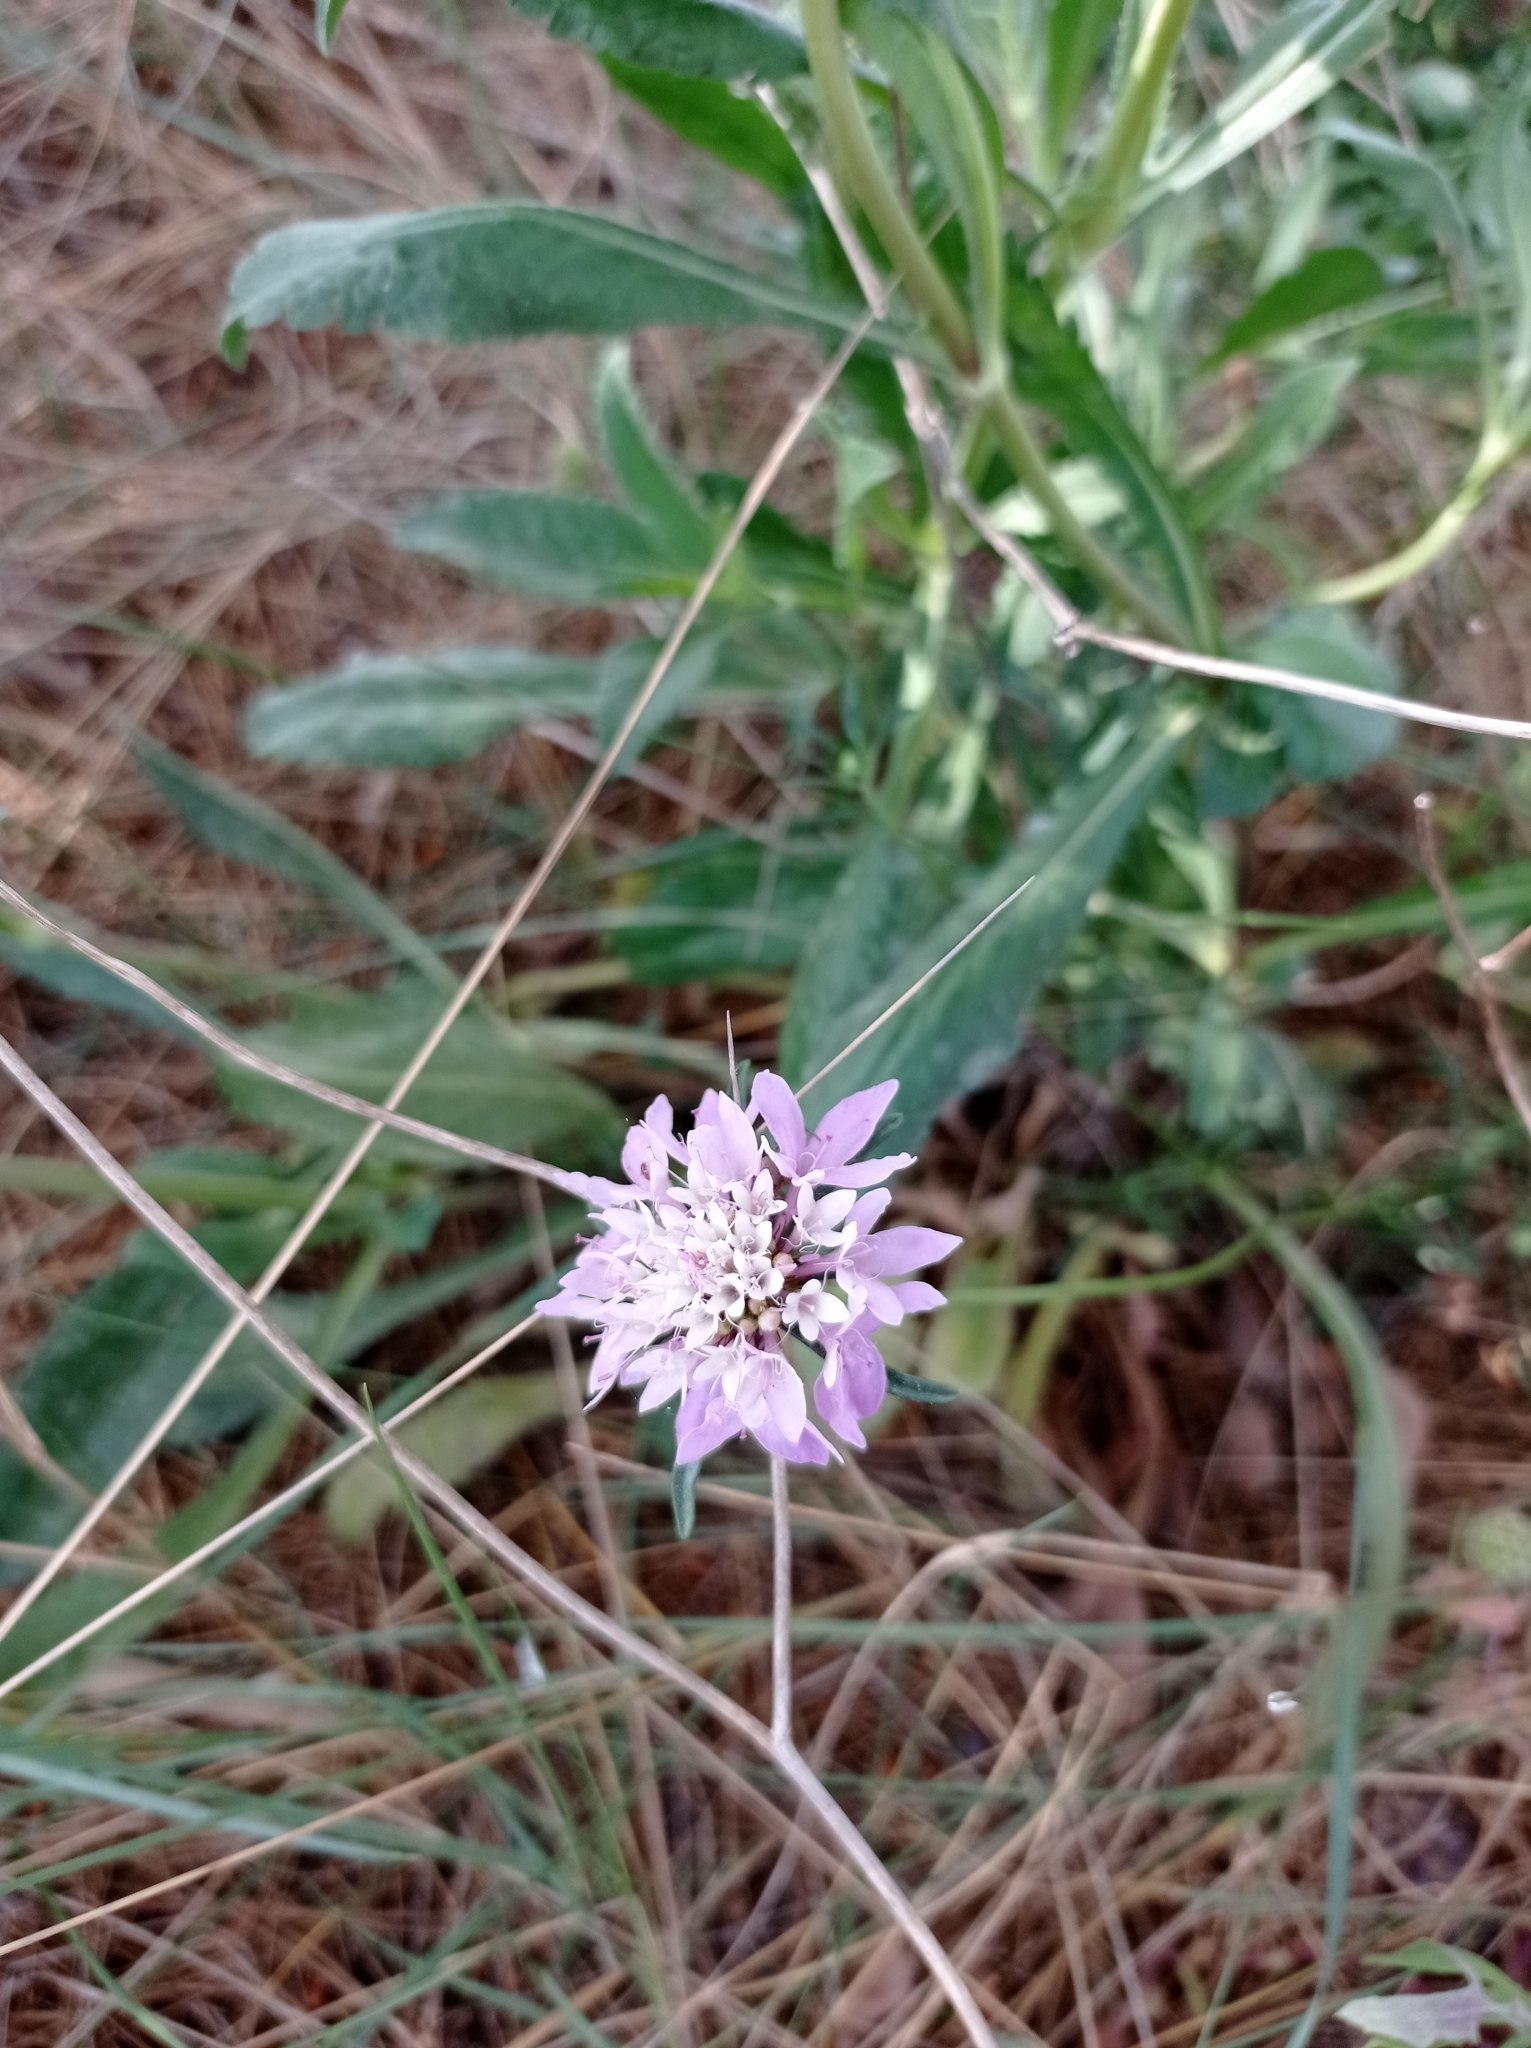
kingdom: Plantae
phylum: Tracheophyta
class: Magnoliopsida
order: Dipsacales
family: Caprifoliaceae
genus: Sixalix
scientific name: Sixalix atropurpurea
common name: Sweet scabious
